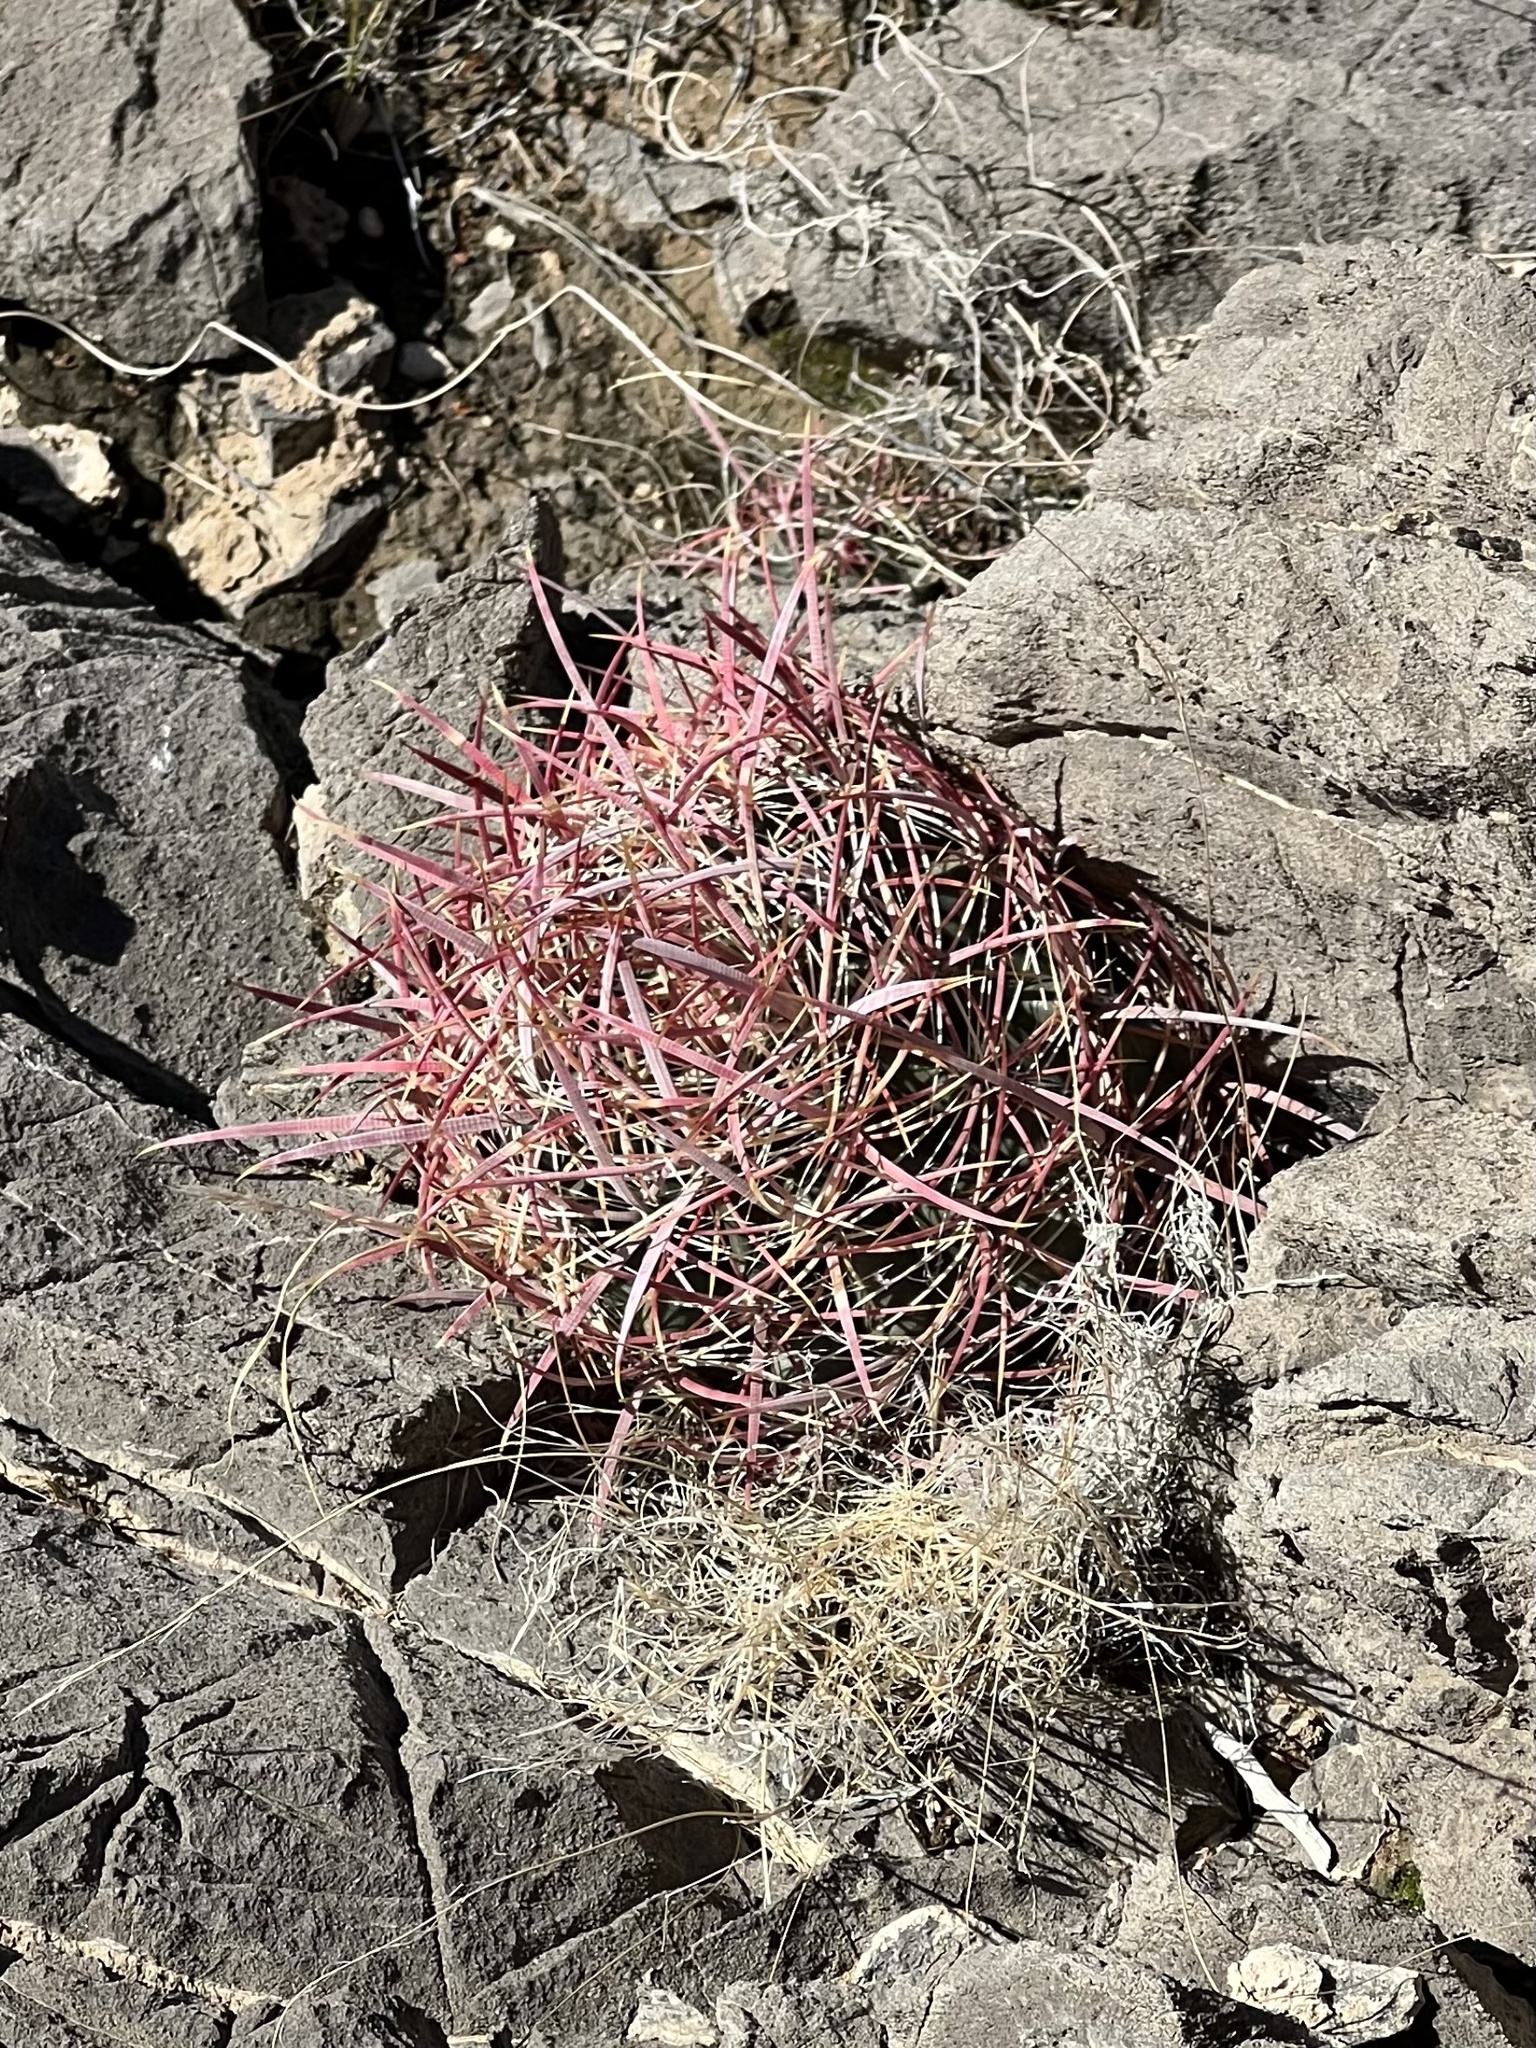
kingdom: Plantae
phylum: Tracheophyta
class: Magnoliopsida
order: Caryophyllales
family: Cactaceae
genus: Ferocactus
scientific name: Ferocactus cylindraceus
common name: California barrel cactus
